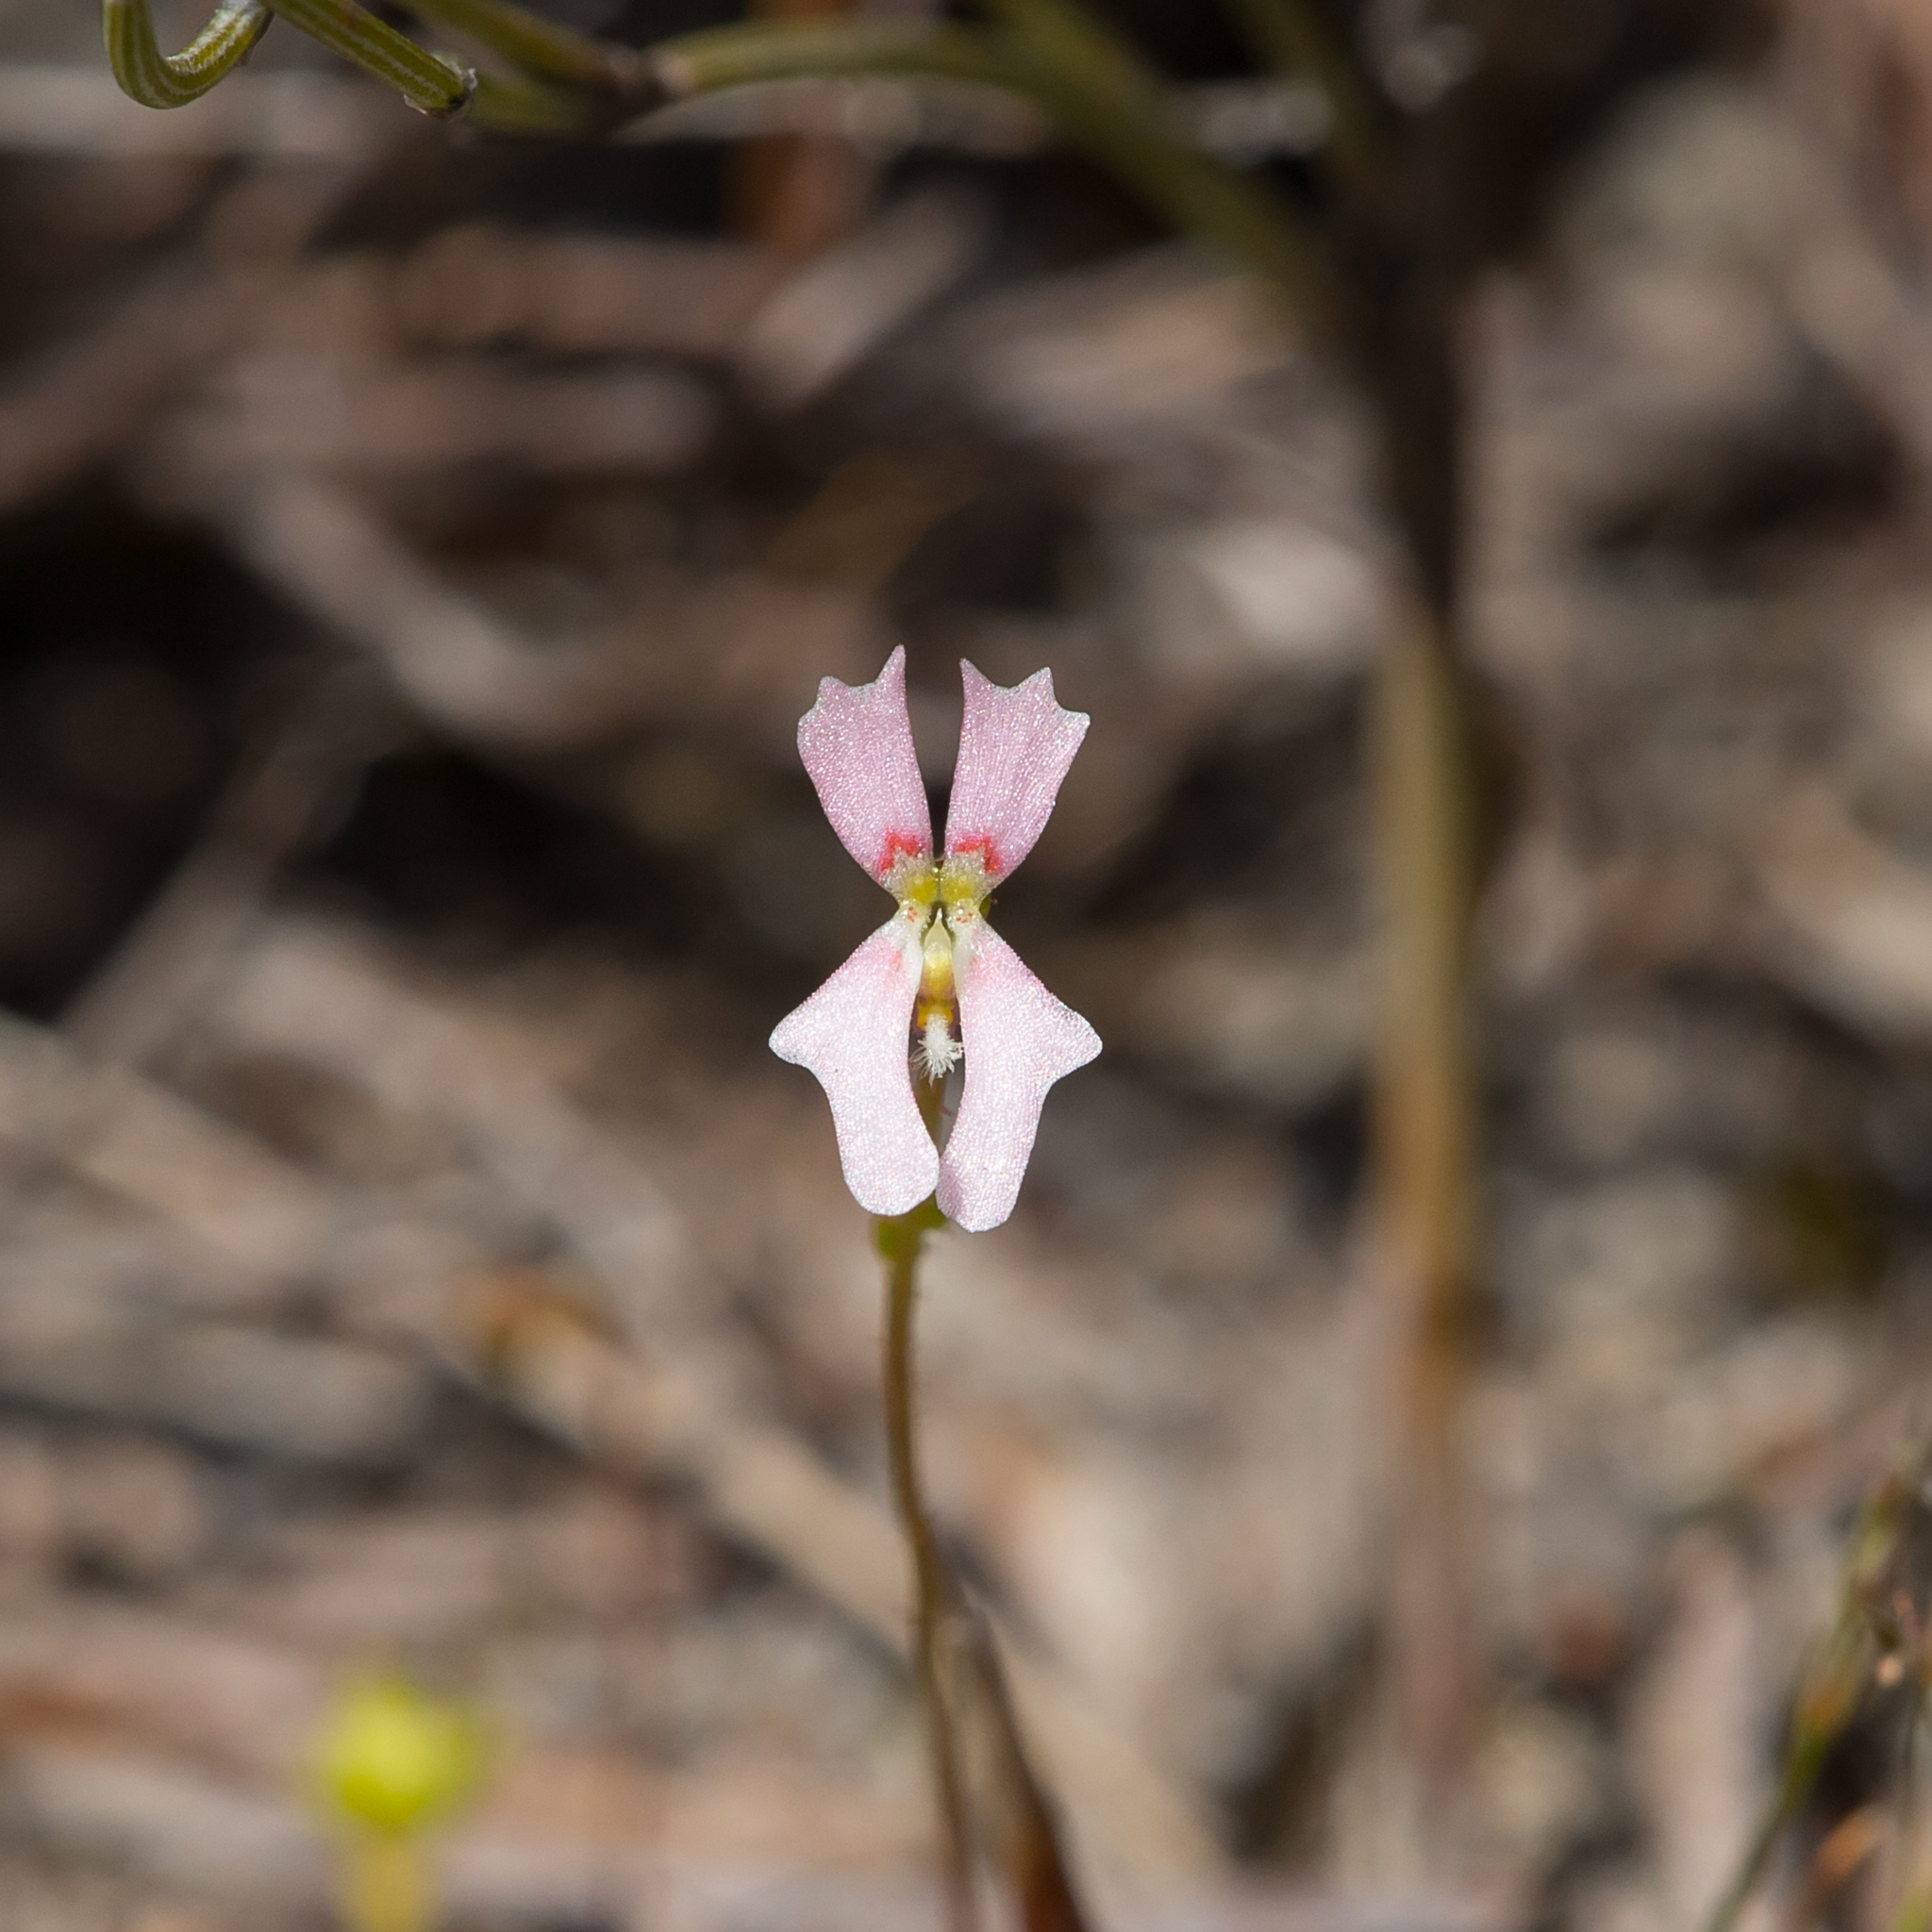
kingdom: Plantae
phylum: Tracheophyta
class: Magnoliopsida
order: Asterales
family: Stylidiaceae
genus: Stylidium
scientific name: Stylidium calcaratum
